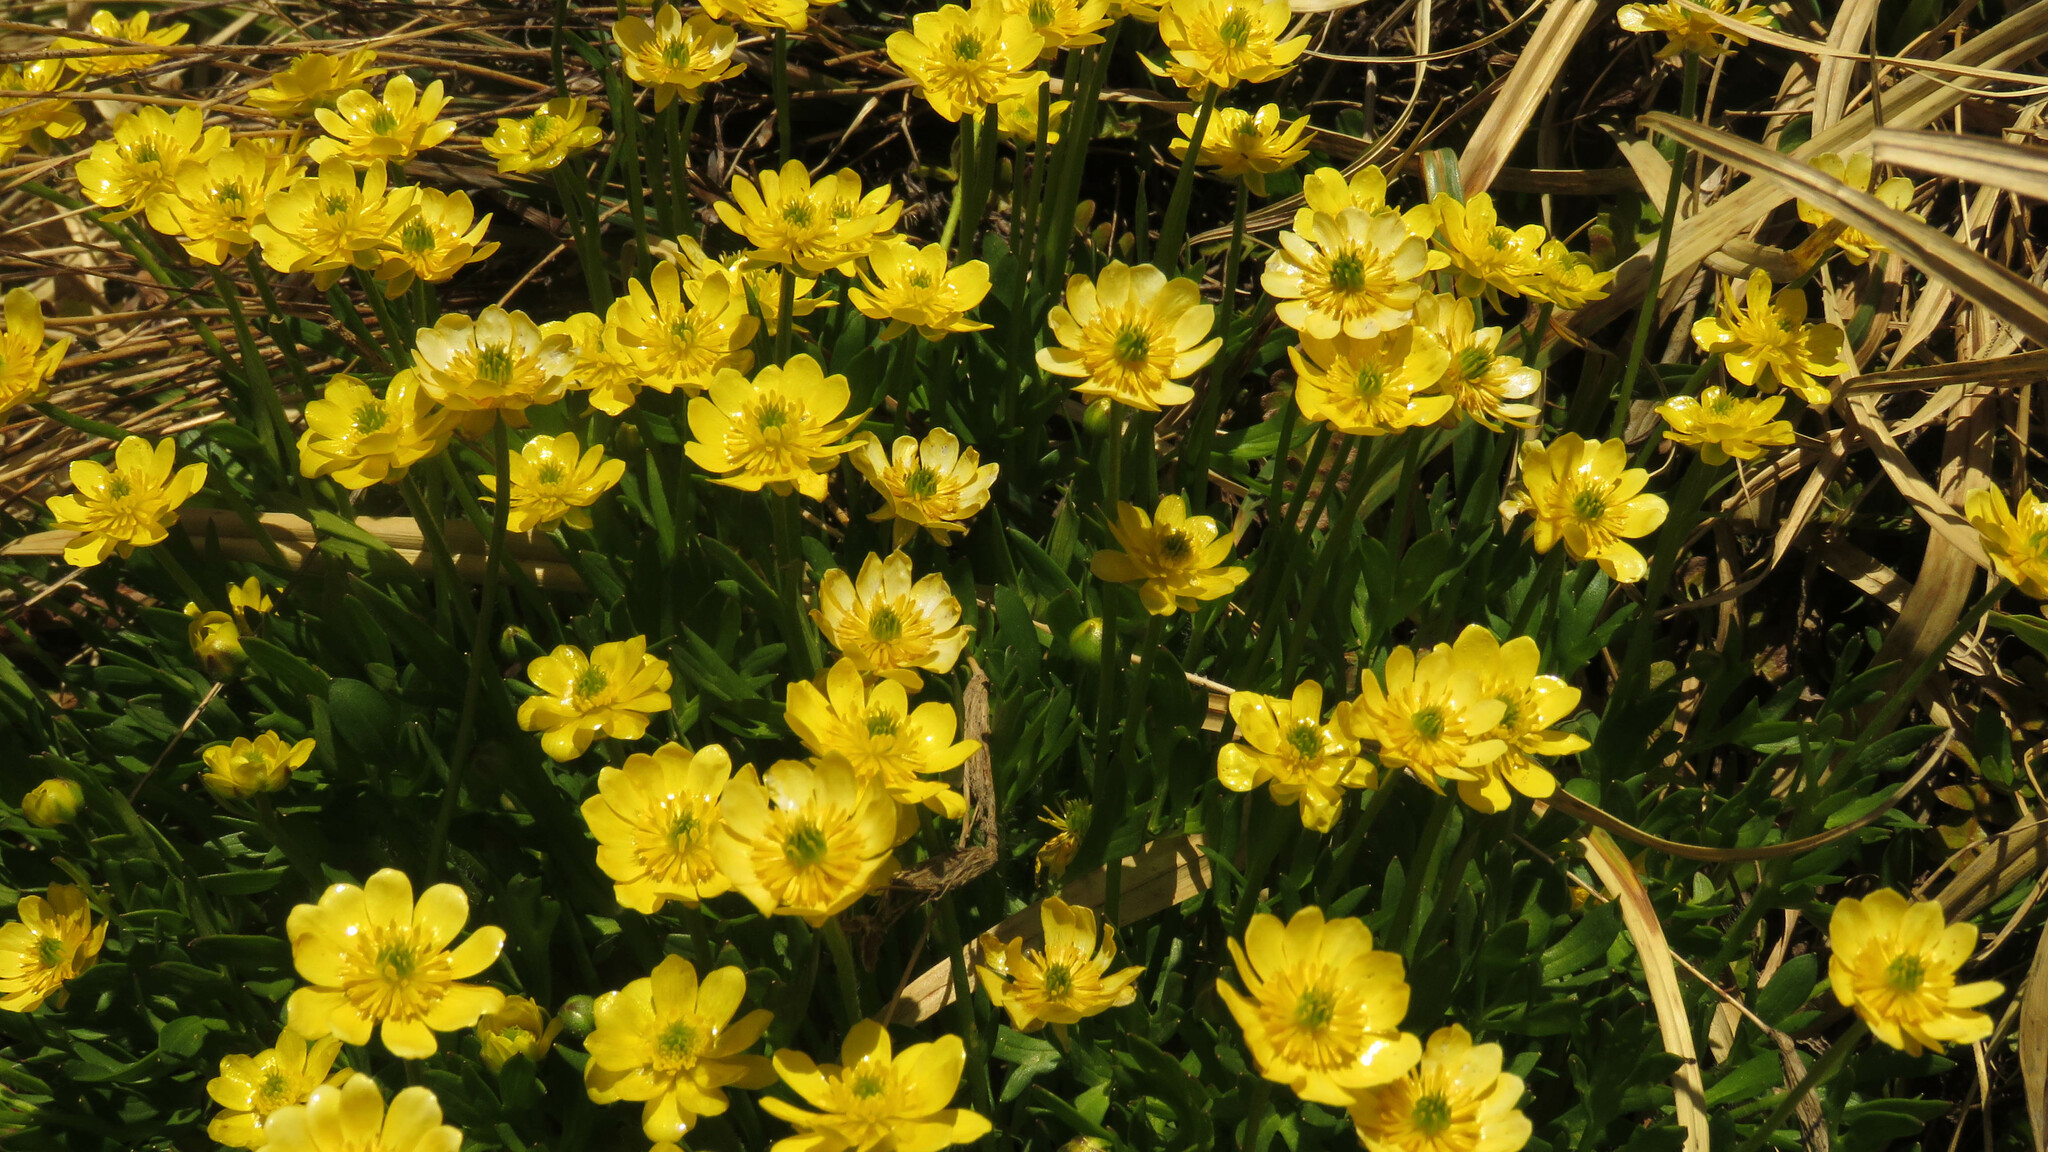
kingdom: Plantae
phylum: Tracheophyta
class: Magnoliopsida
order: Ranunculales
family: Ranunculaceae
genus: Ranunculus
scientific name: Ranunculus peduncularis
